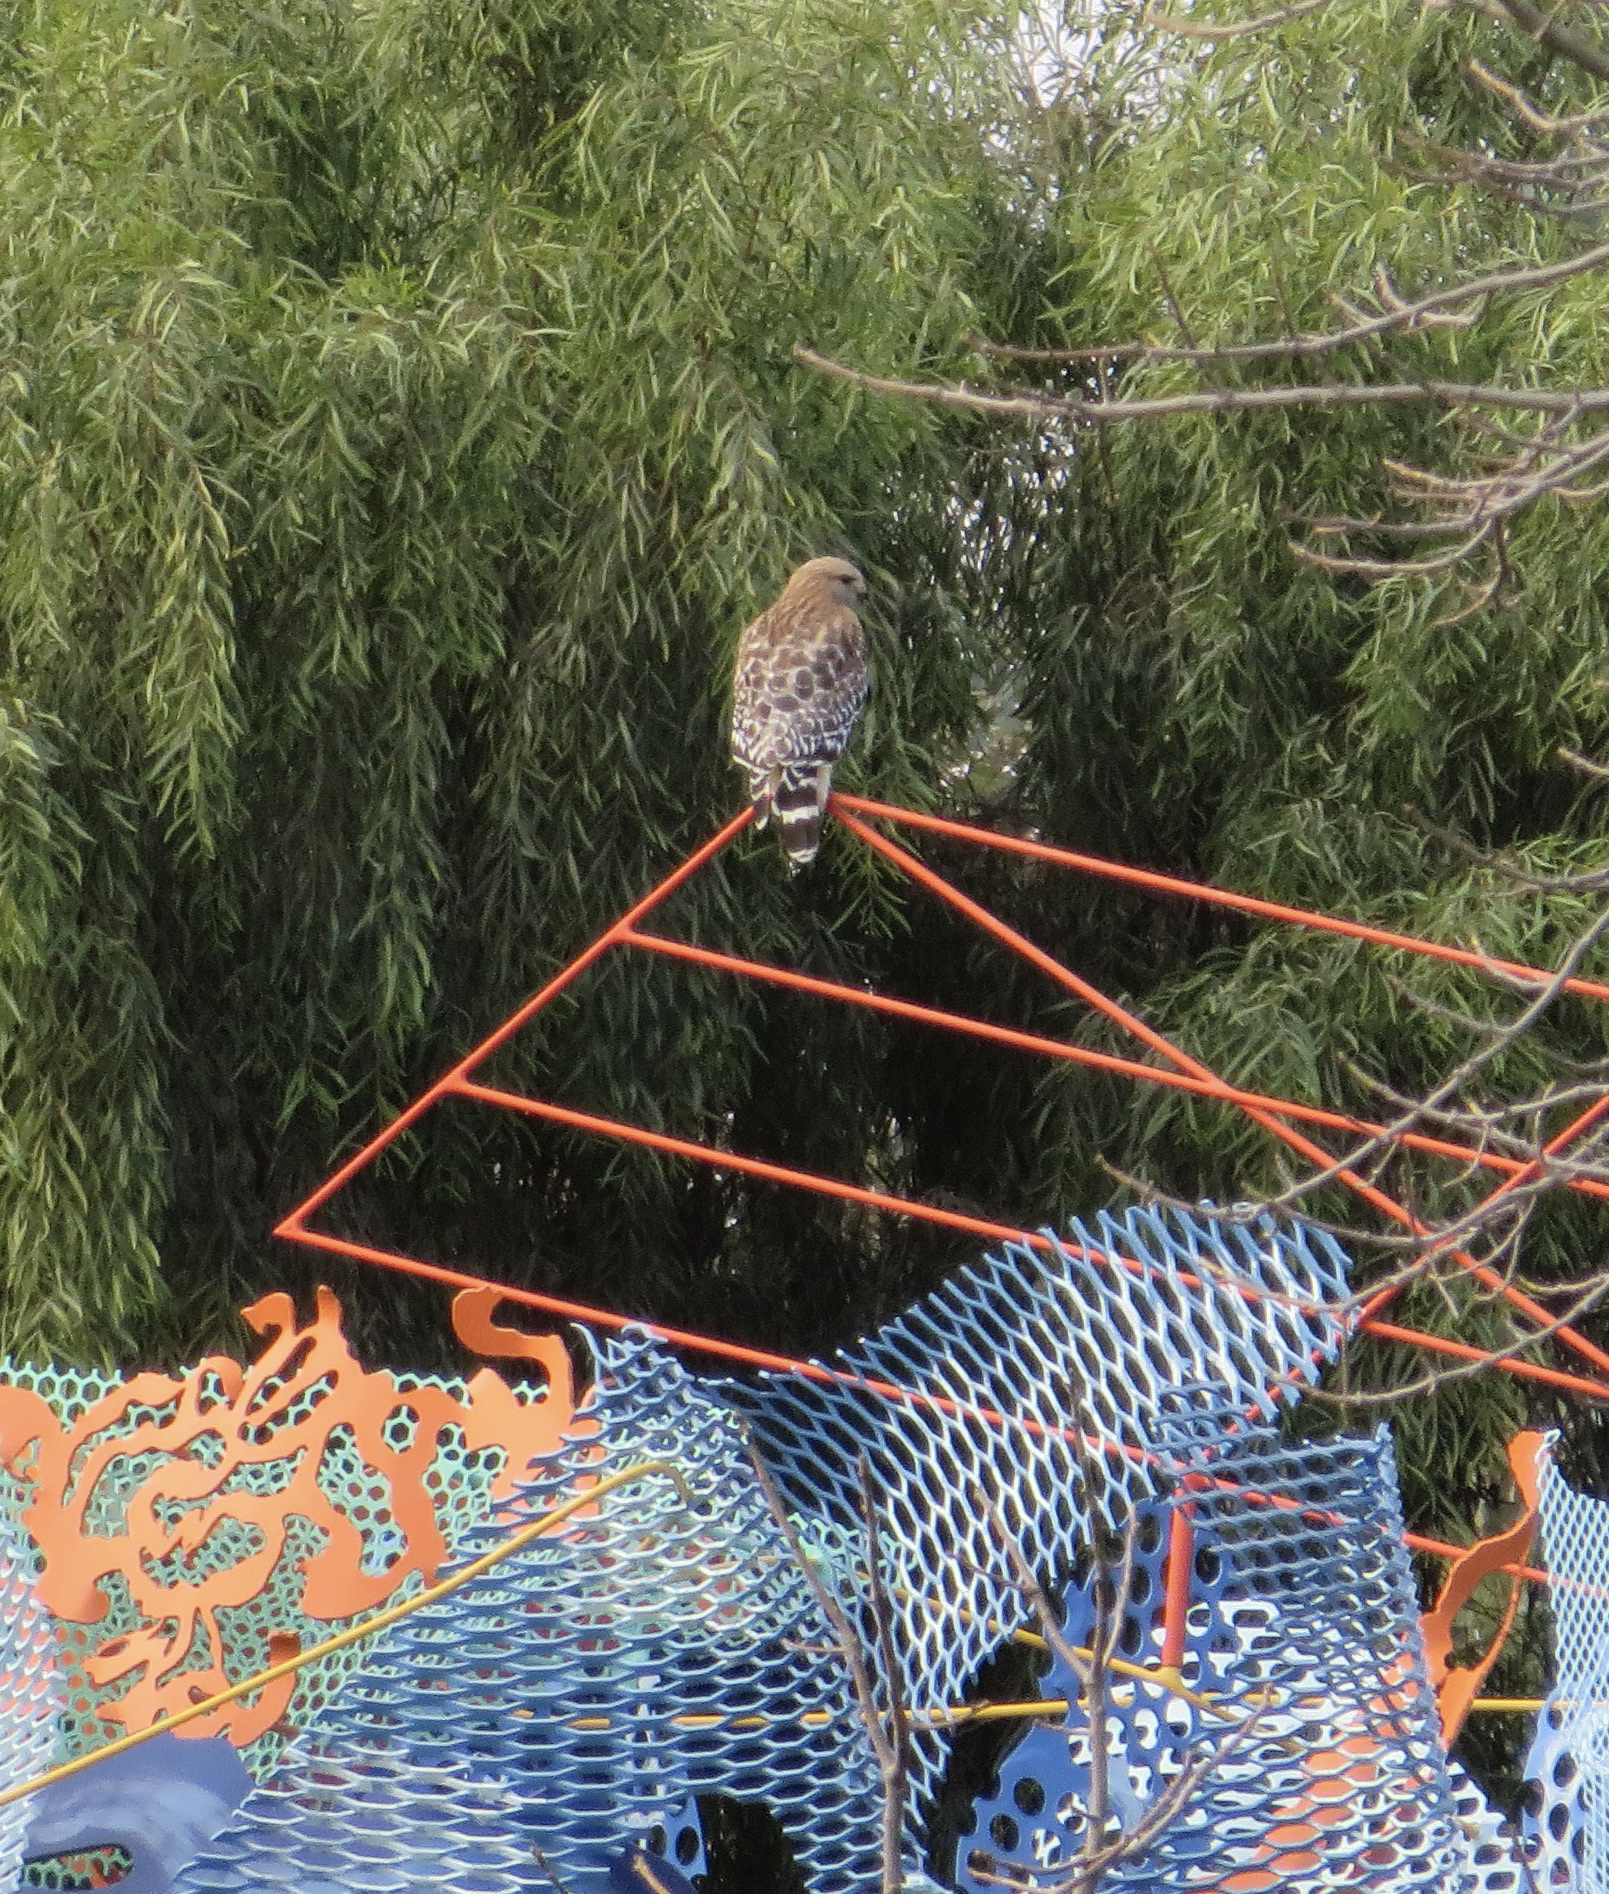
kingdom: Animalia
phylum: Chordata
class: Aves
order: Accipitriformes
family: Accipitridae
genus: Buteo
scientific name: Buteo lineatus
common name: Red-shouldered hawk
